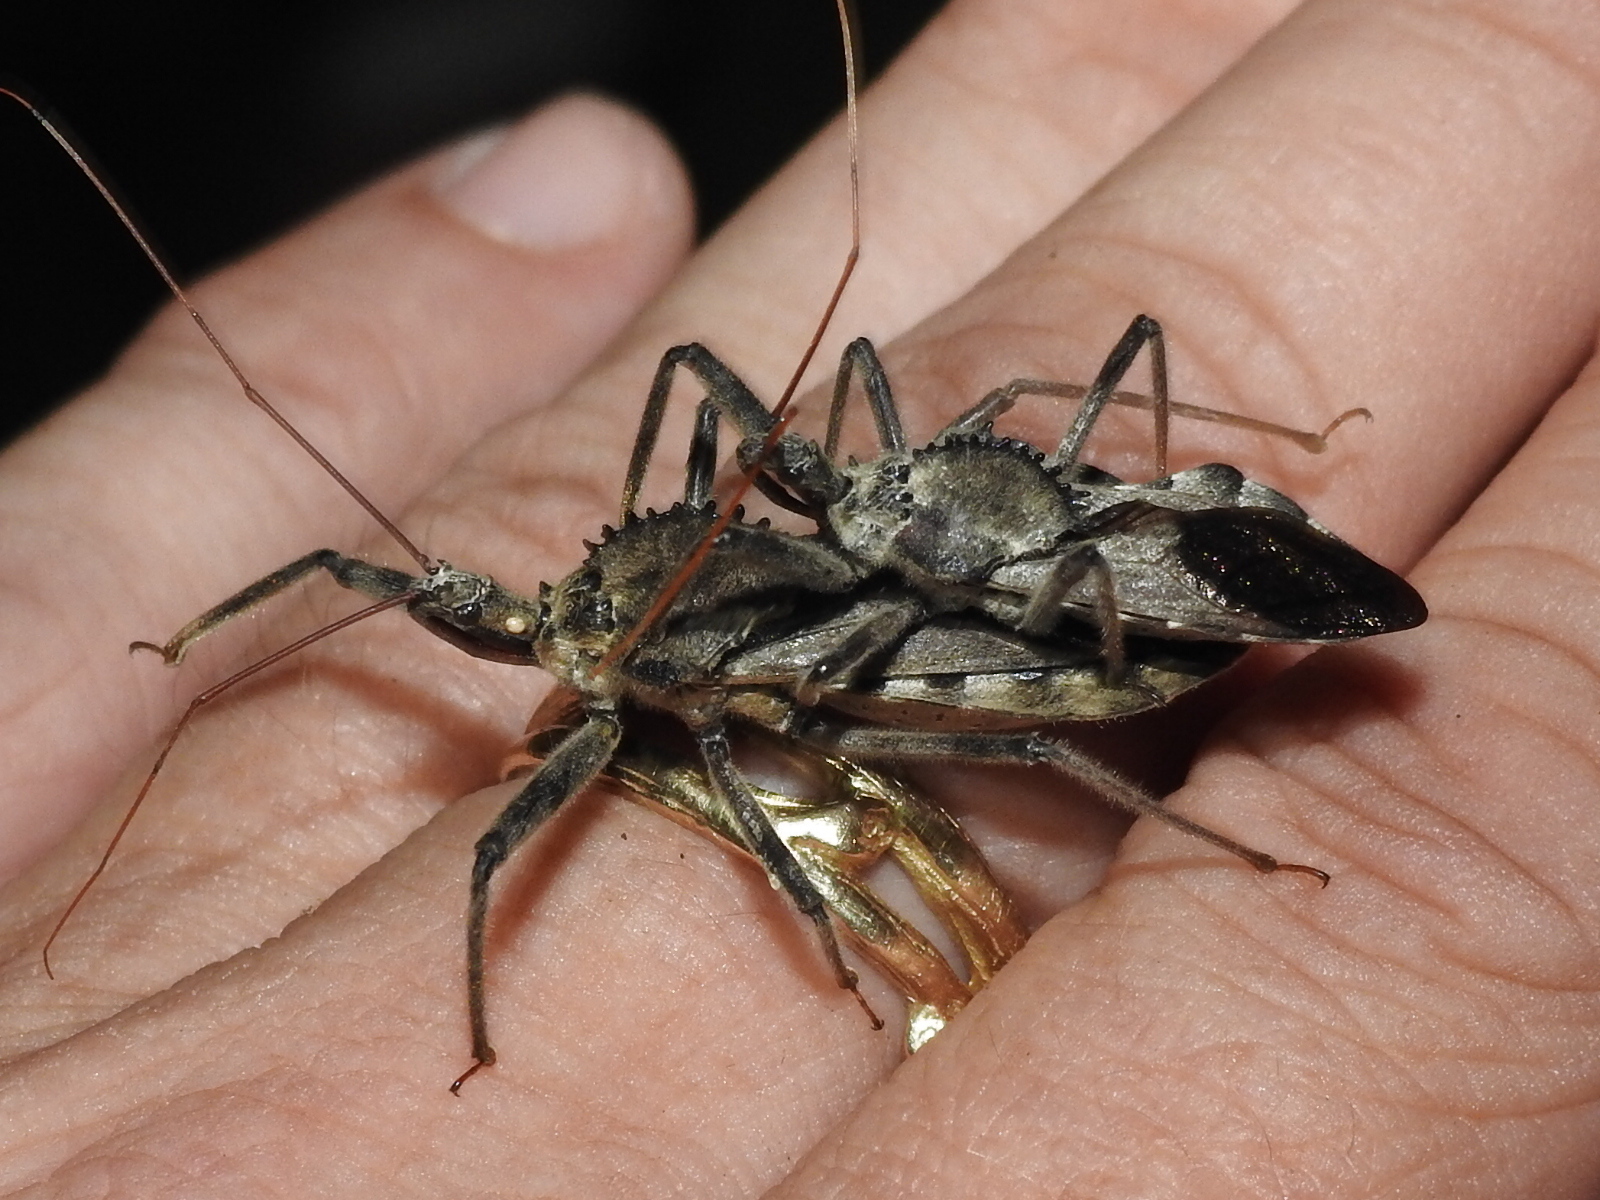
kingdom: Animalia
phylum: Arthropoda
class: Insecta
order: Hemiptera
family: Reduviidae
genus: Arilus
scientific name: Arilus cristatus
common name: North american wheel bug
